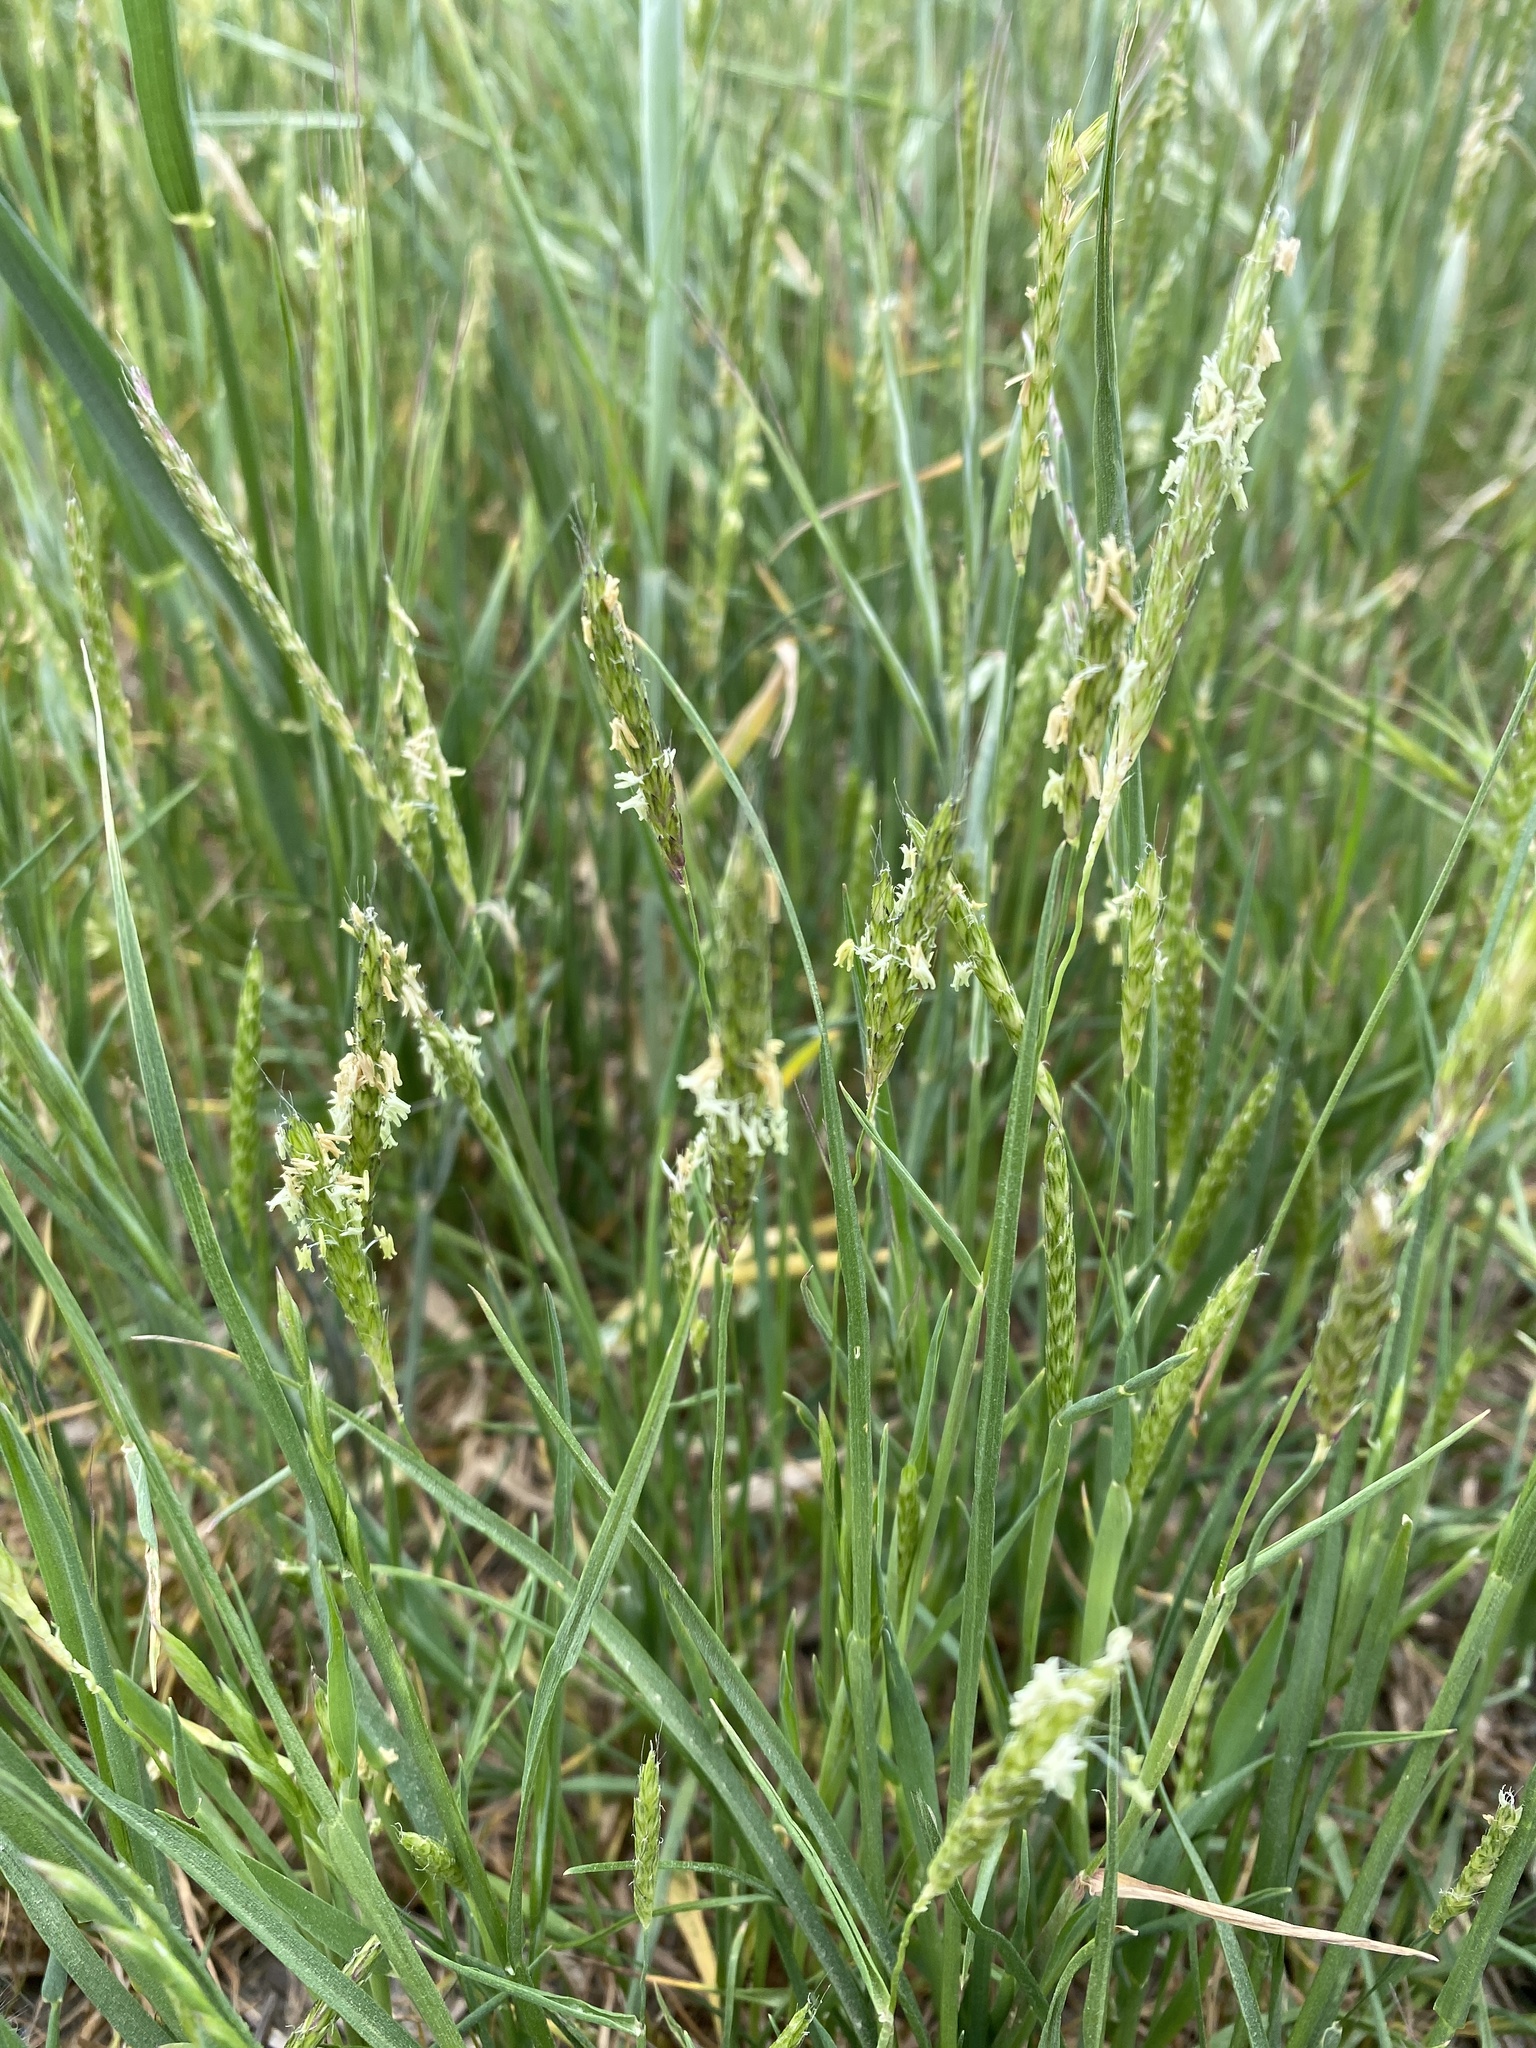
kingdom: Plantae
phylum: Tracheophyta
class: Liliopsida
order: Poales
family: Poaceae
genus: Alopecurus
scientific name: Alopecurus pratensis
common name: Meadow foxtail
